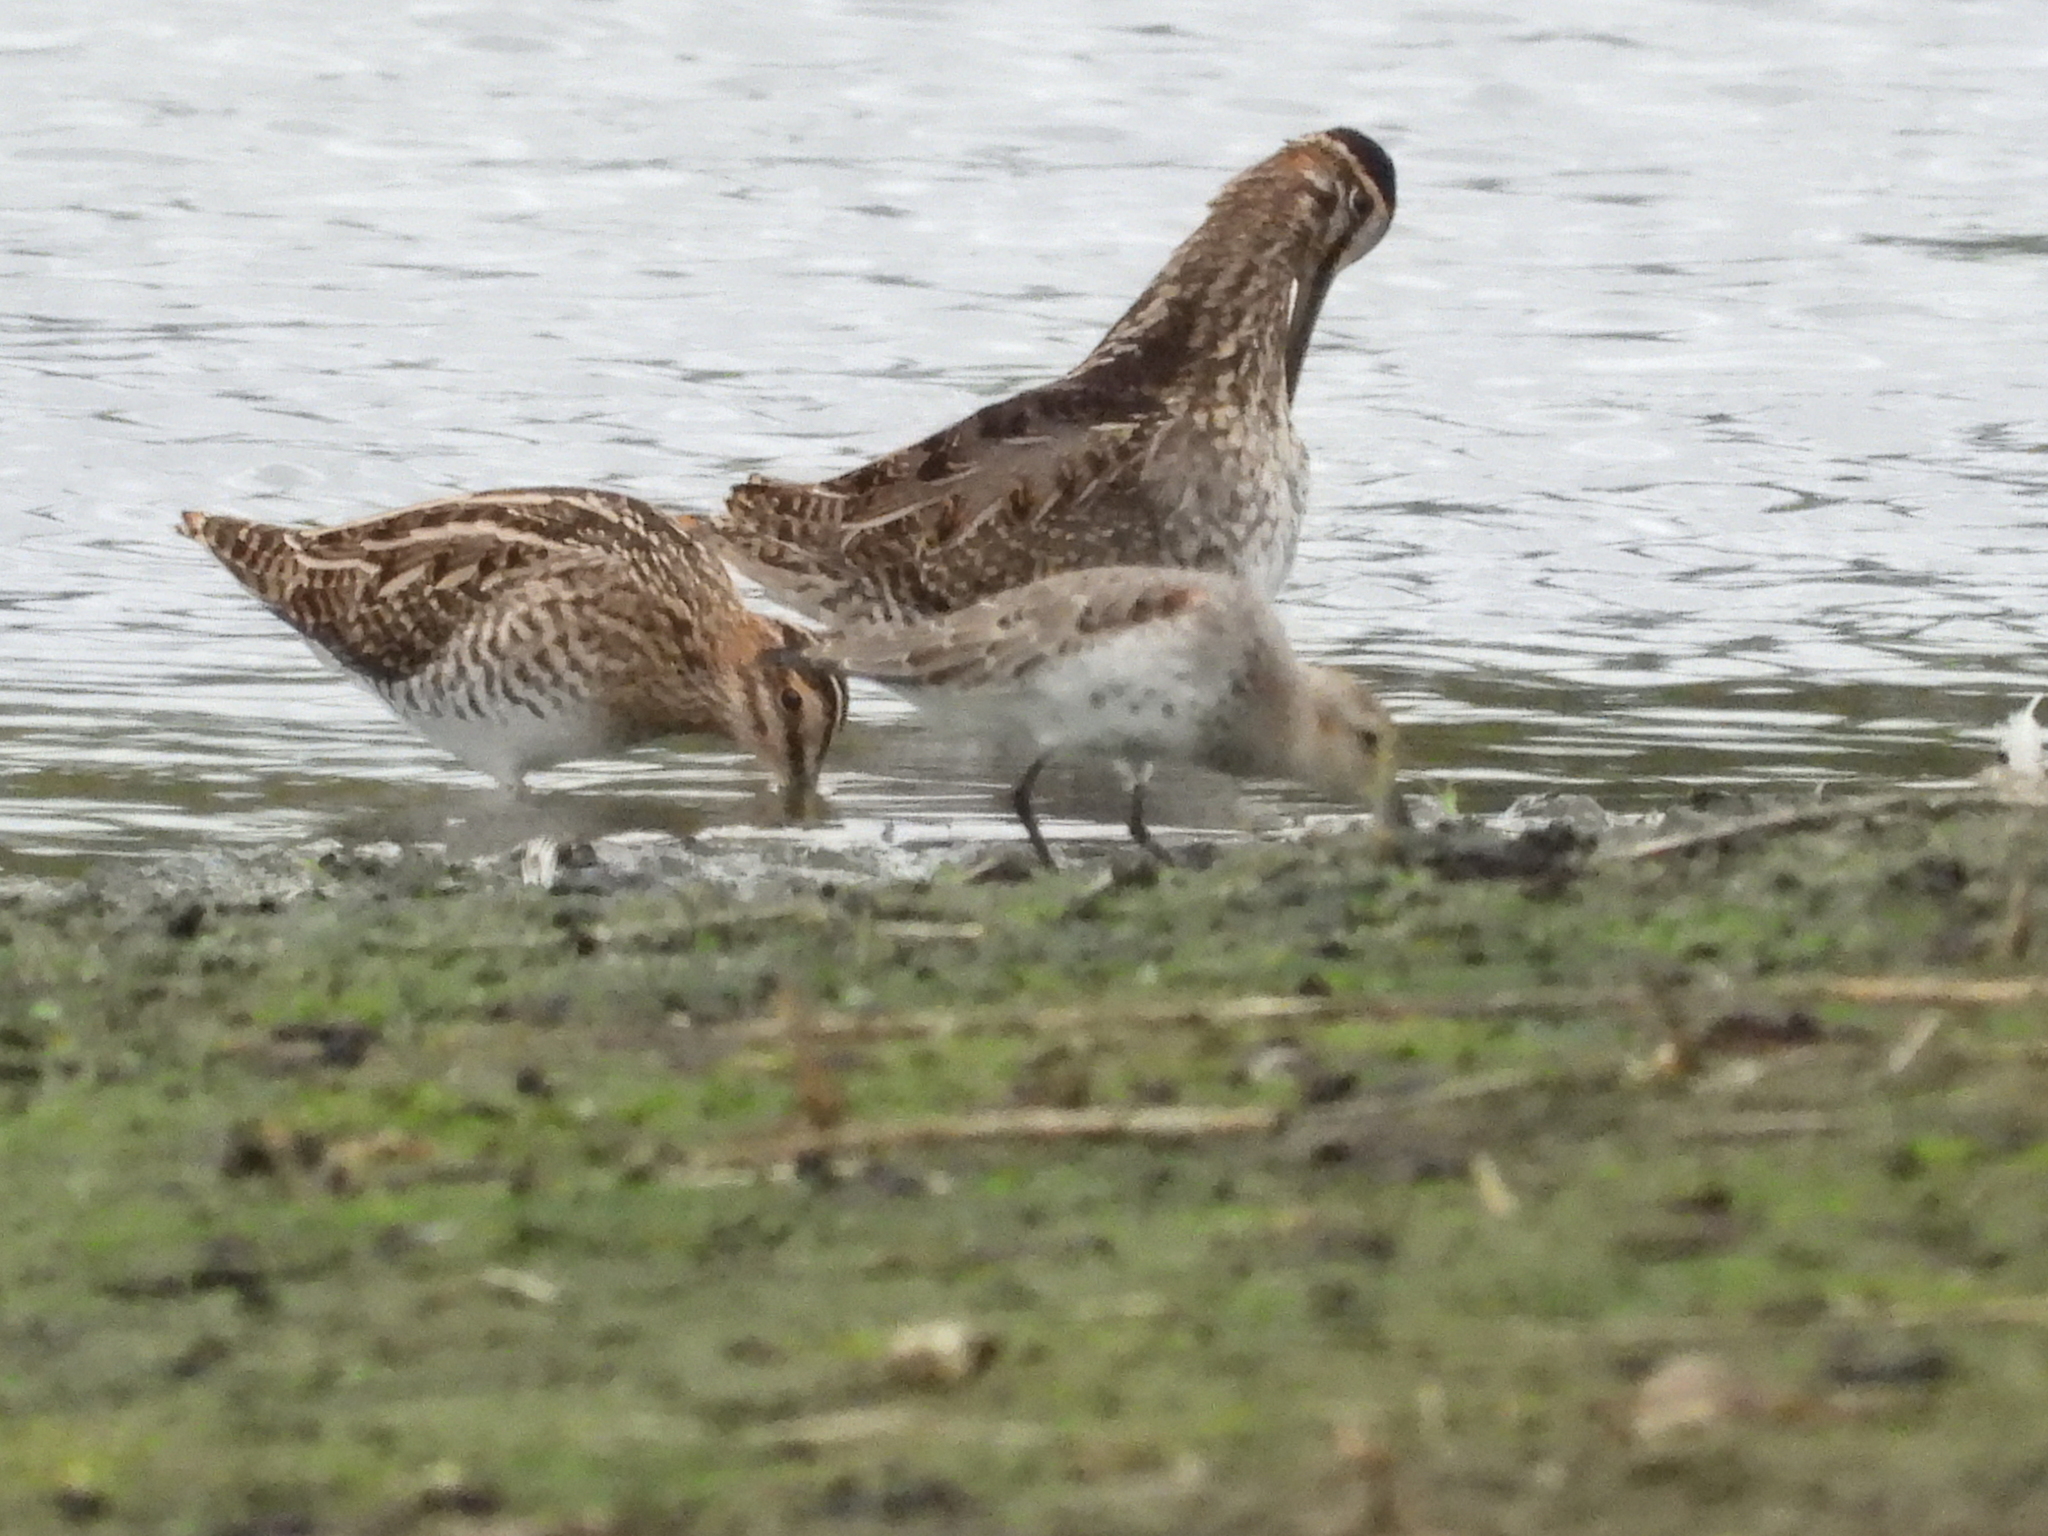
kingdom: Animalia
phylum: Chordata
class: Aves
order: Charadriiformes
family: Scolopacidae
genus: Gallinago
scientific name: Gallinago gallinago
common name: Common snipe
